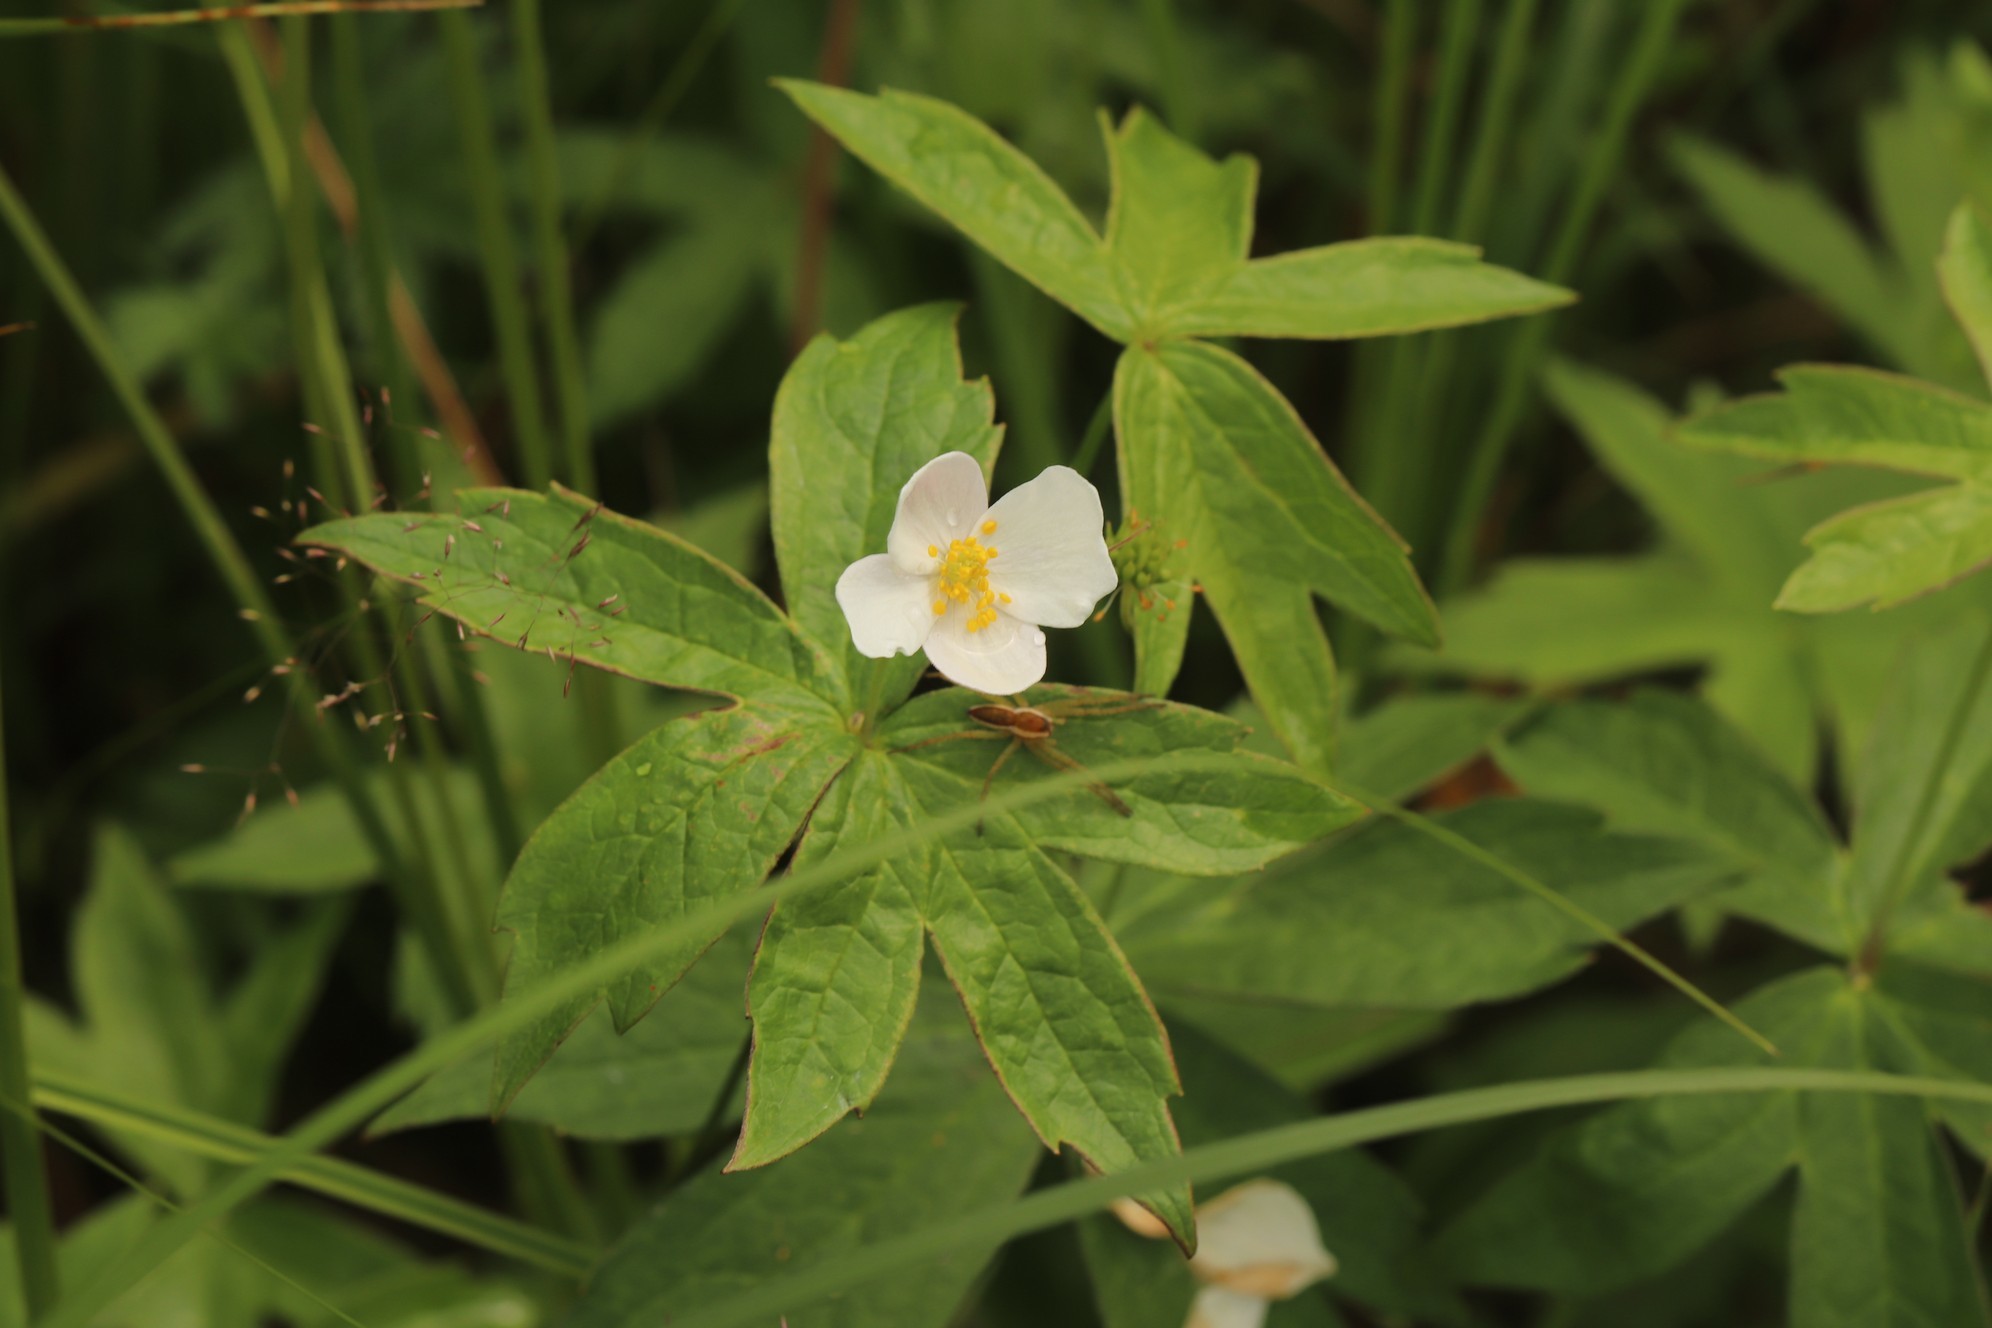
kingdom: Plantae
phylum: Tracheophyta
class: Magnoliopsida
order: Ranunculales
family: Ranunculaceae
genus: Anemonastrum
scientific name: Anemonastrum dichotomum
